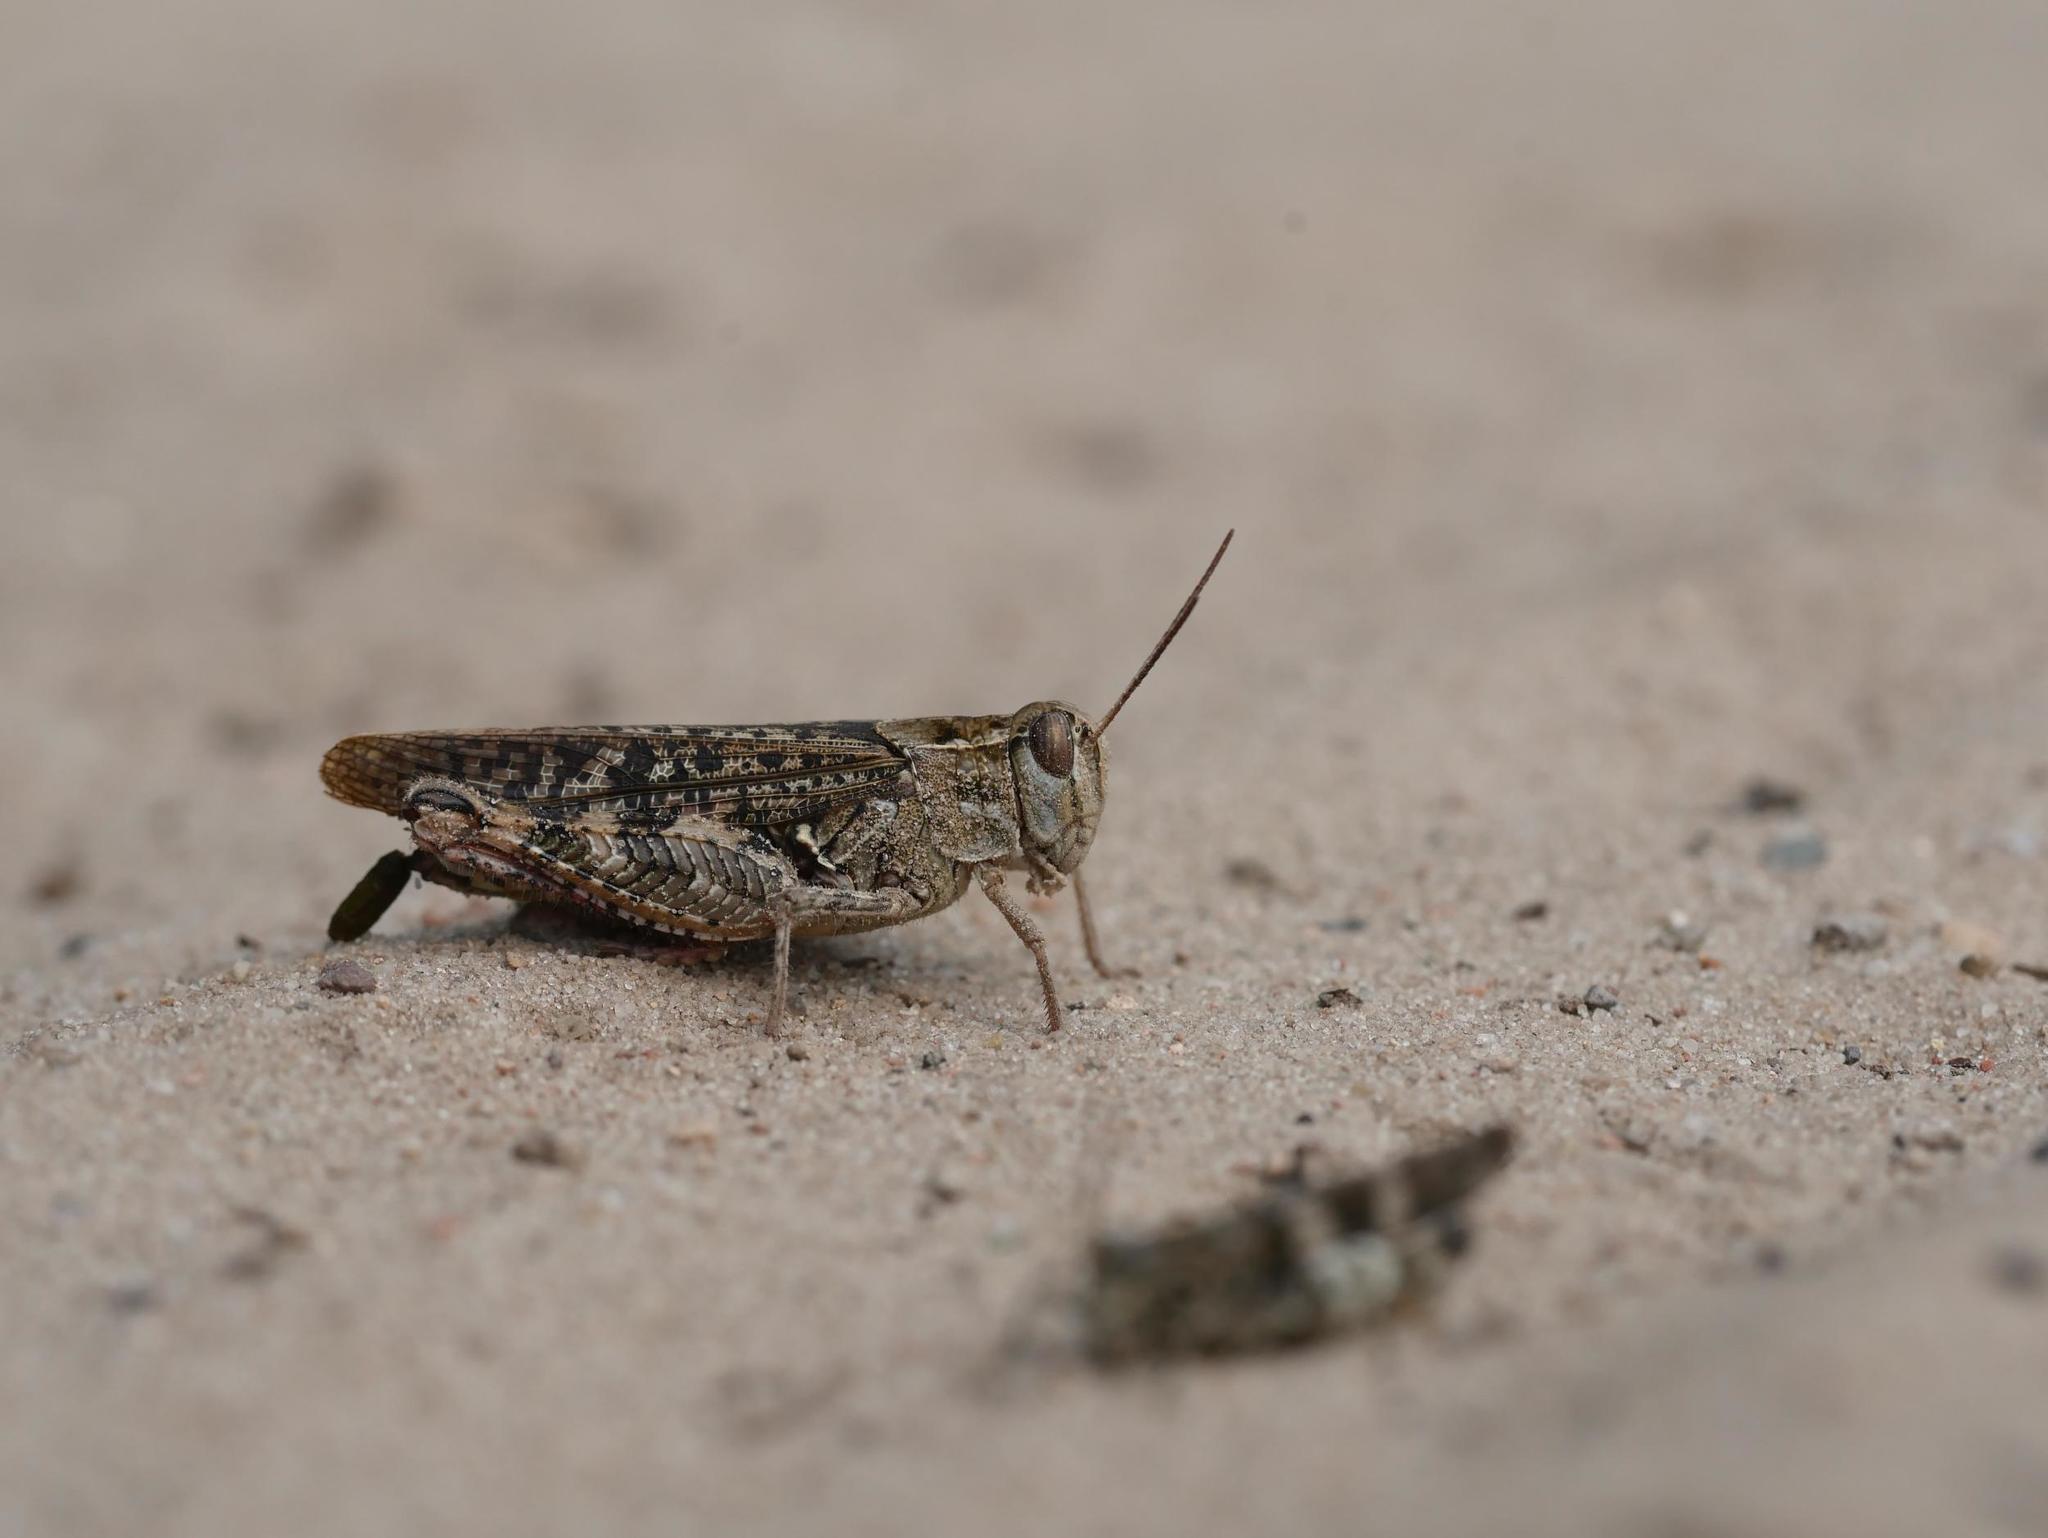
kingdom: Animalia
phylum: Arthropoda
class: Insecta
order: Orthoptera
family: Acrididae
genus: Calliptamus
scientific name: Calliptamus italicus
